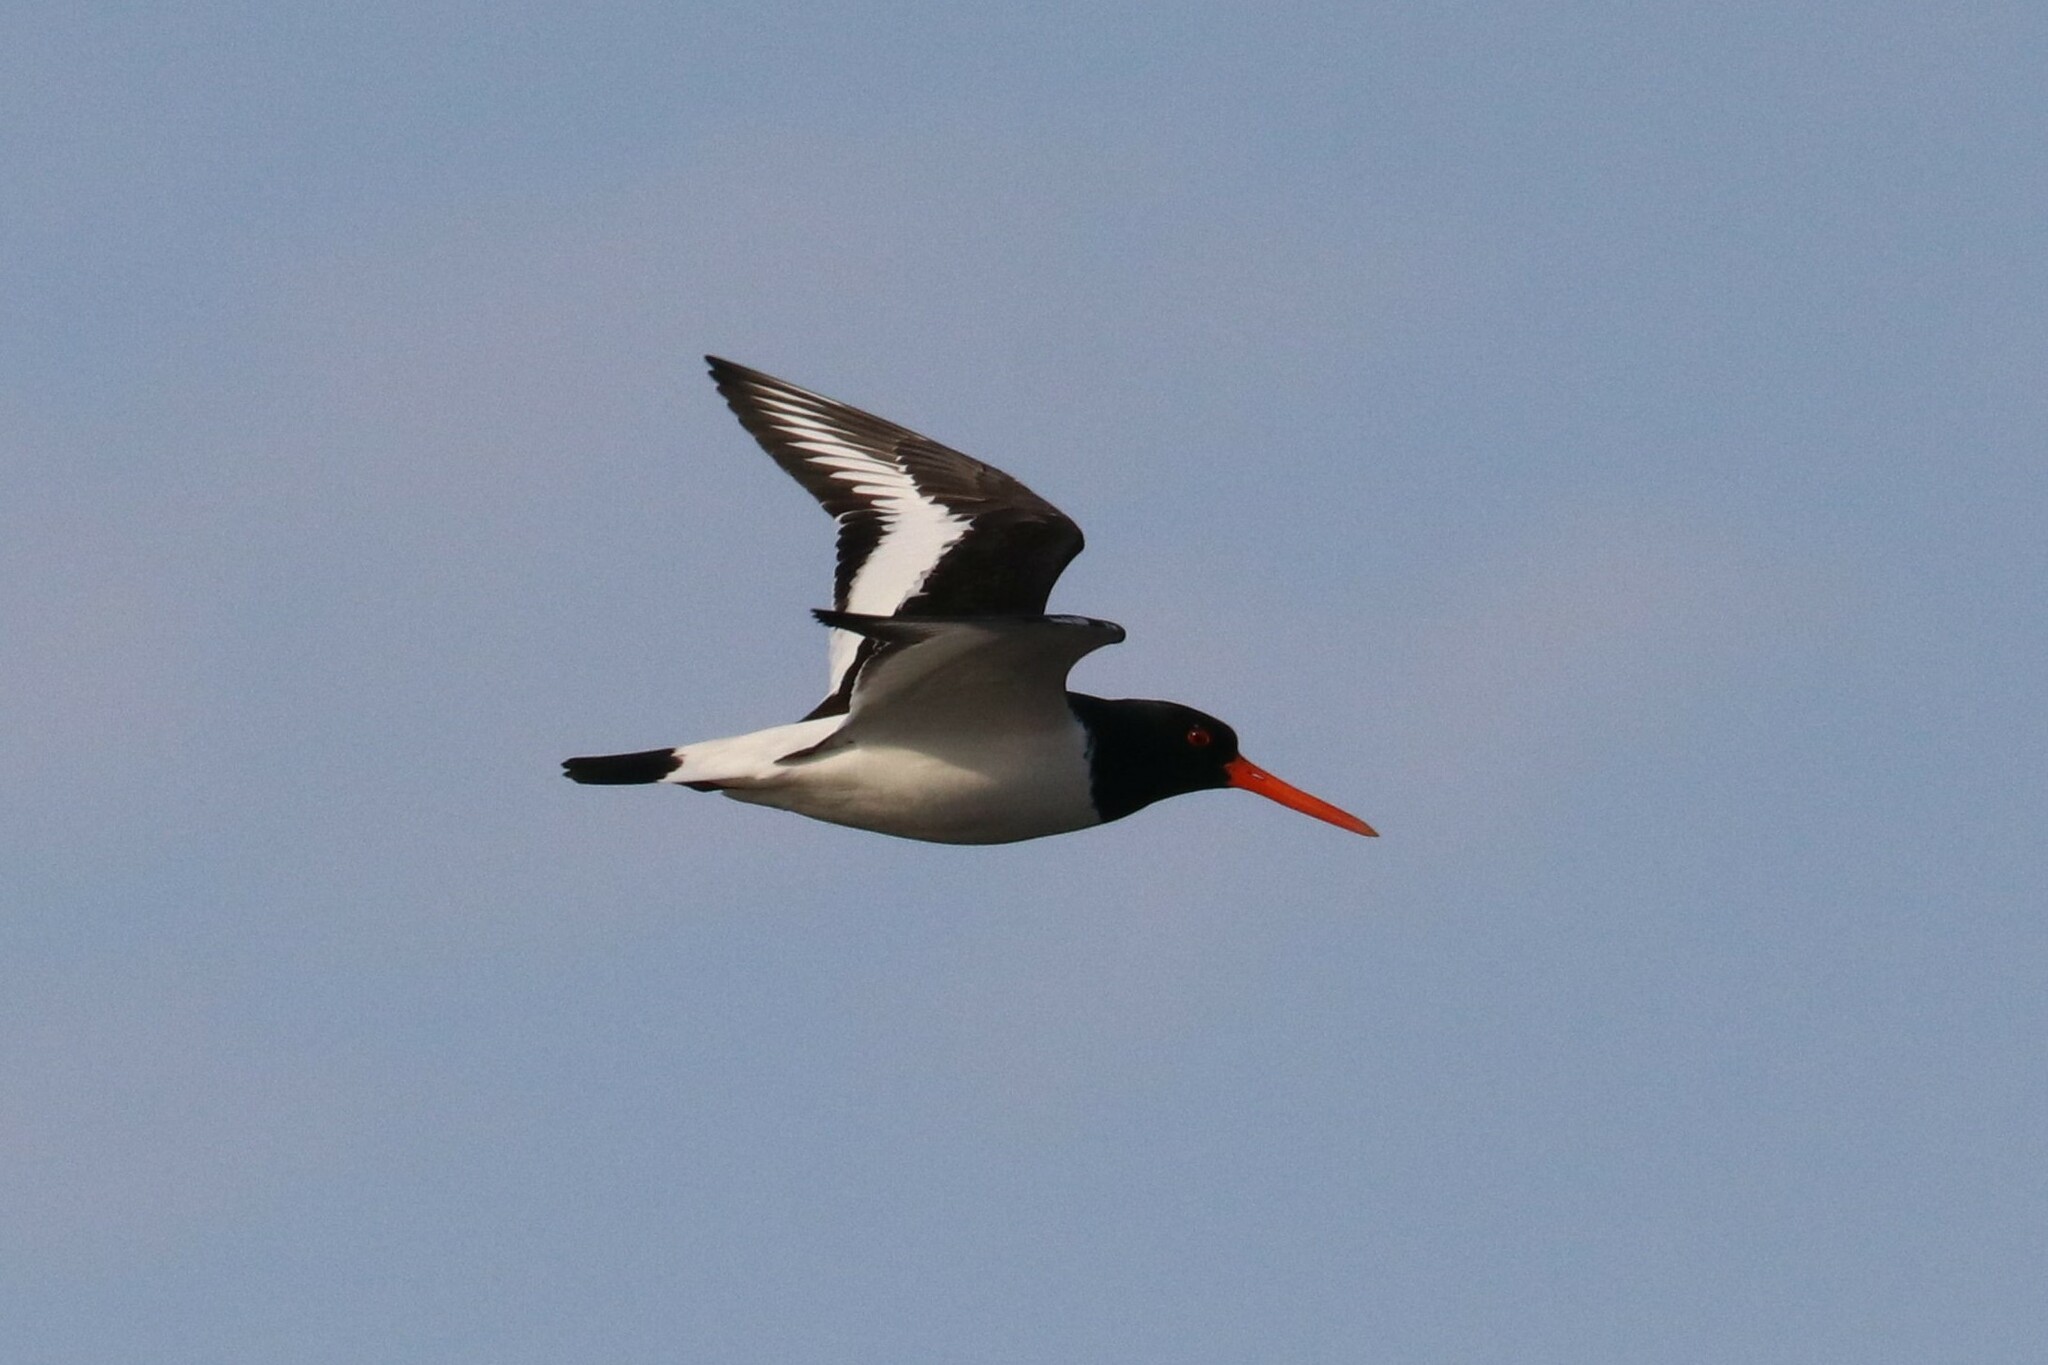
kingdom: Animalia
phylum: Chordata
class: Aves
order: Charadriiformes
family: Haematopodidae
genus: Haematopus
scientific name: Haematopus ostralegus
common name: Eurasian oystercatcher
